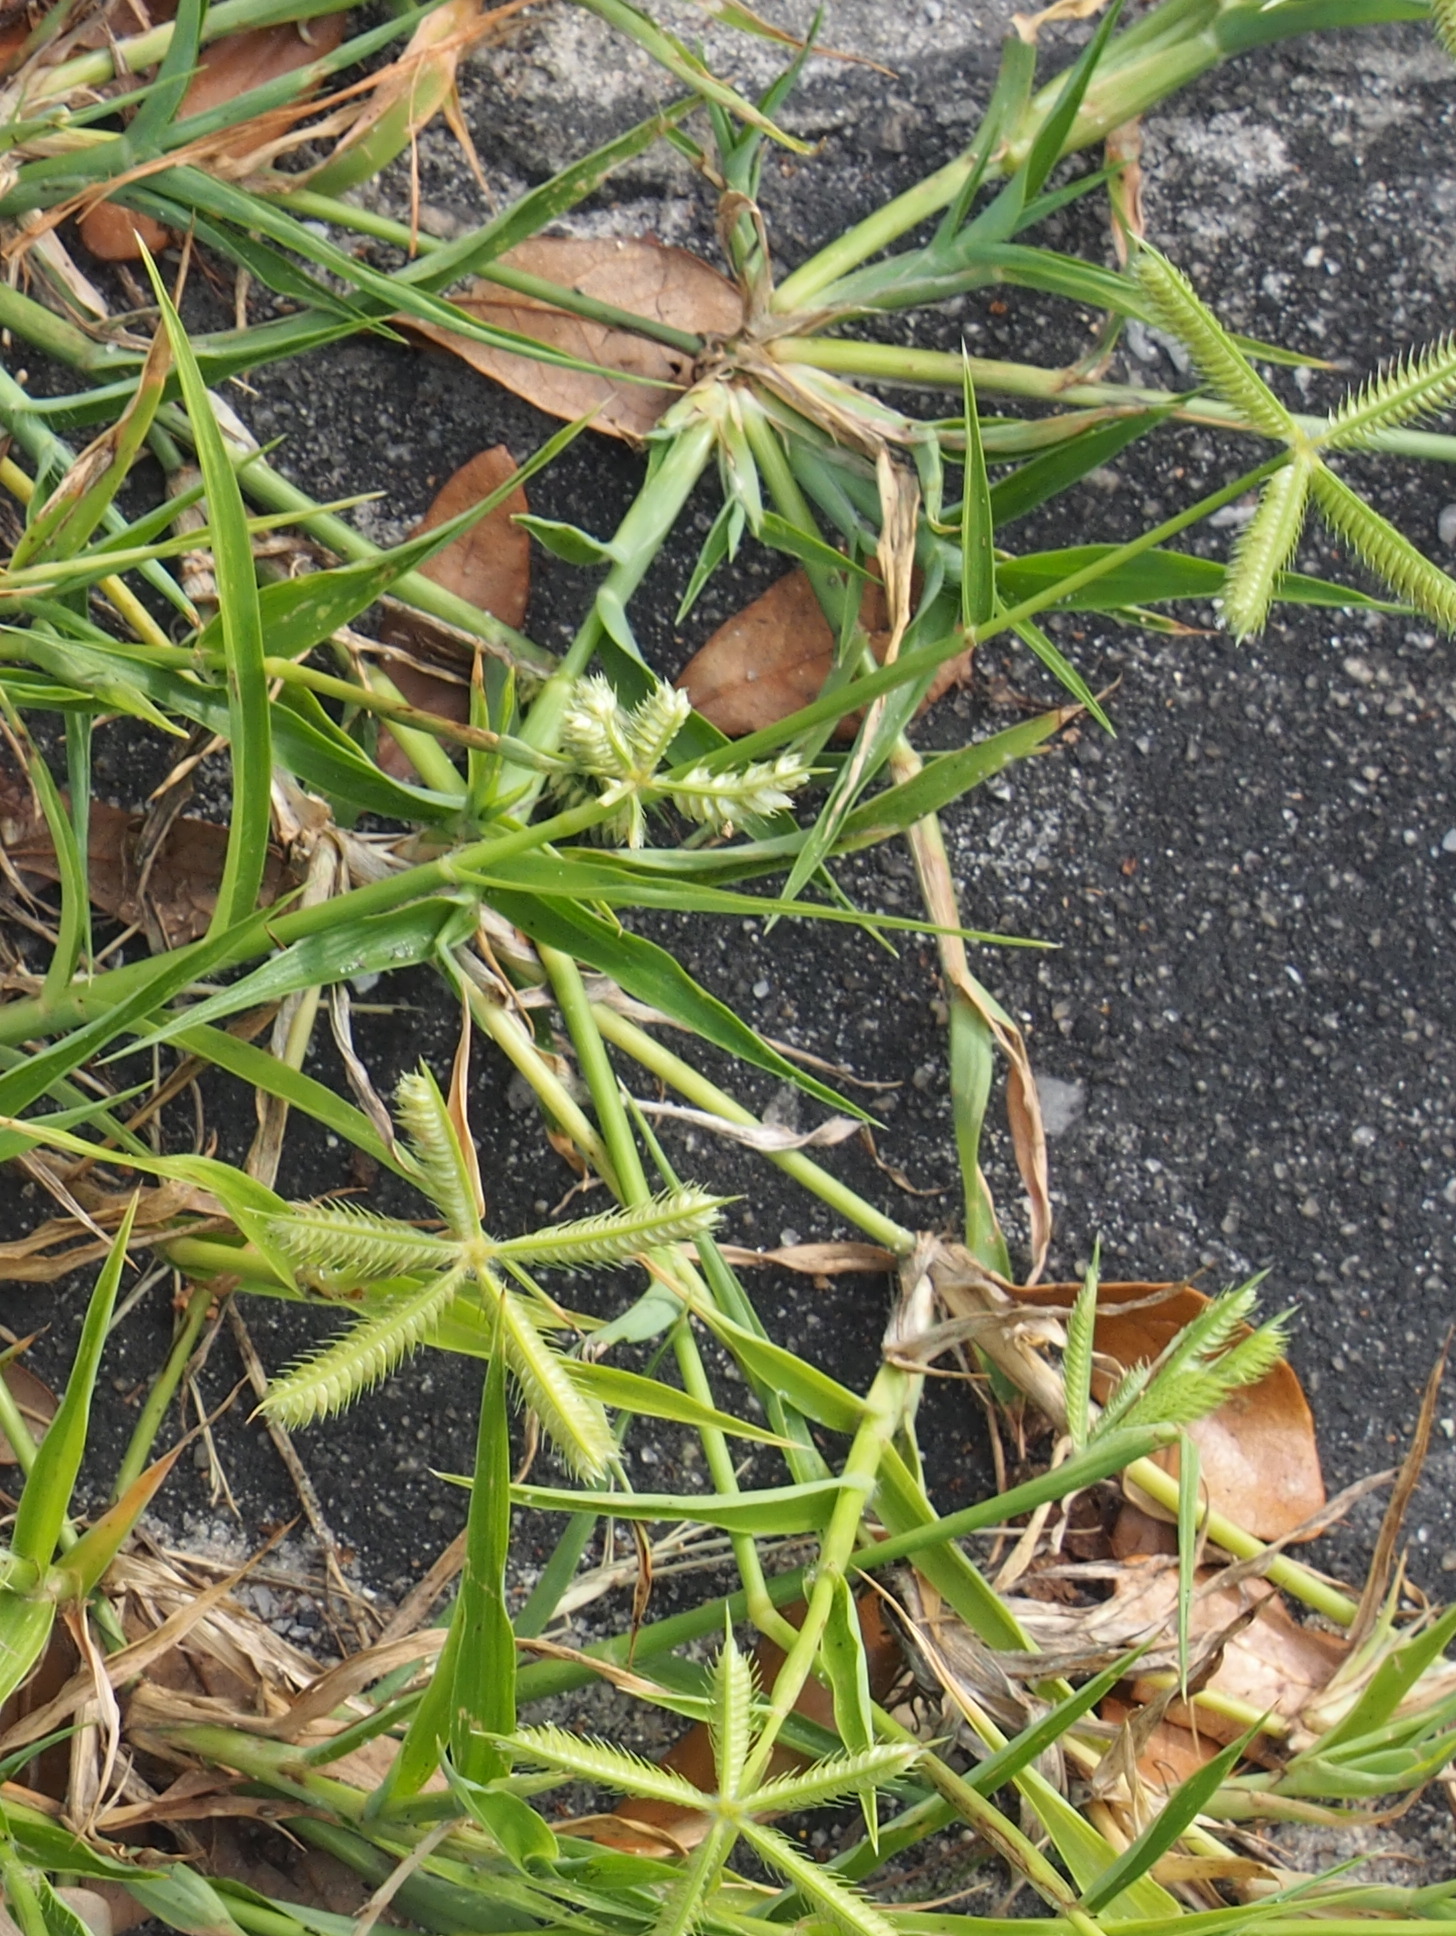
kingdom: Plantae
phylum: Tracheophyta
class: Liliopsida
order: Poales
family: Poaceae
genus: Dactyloctenium
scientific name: Dactyloctenium aegyptium
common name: Egyptian grass
